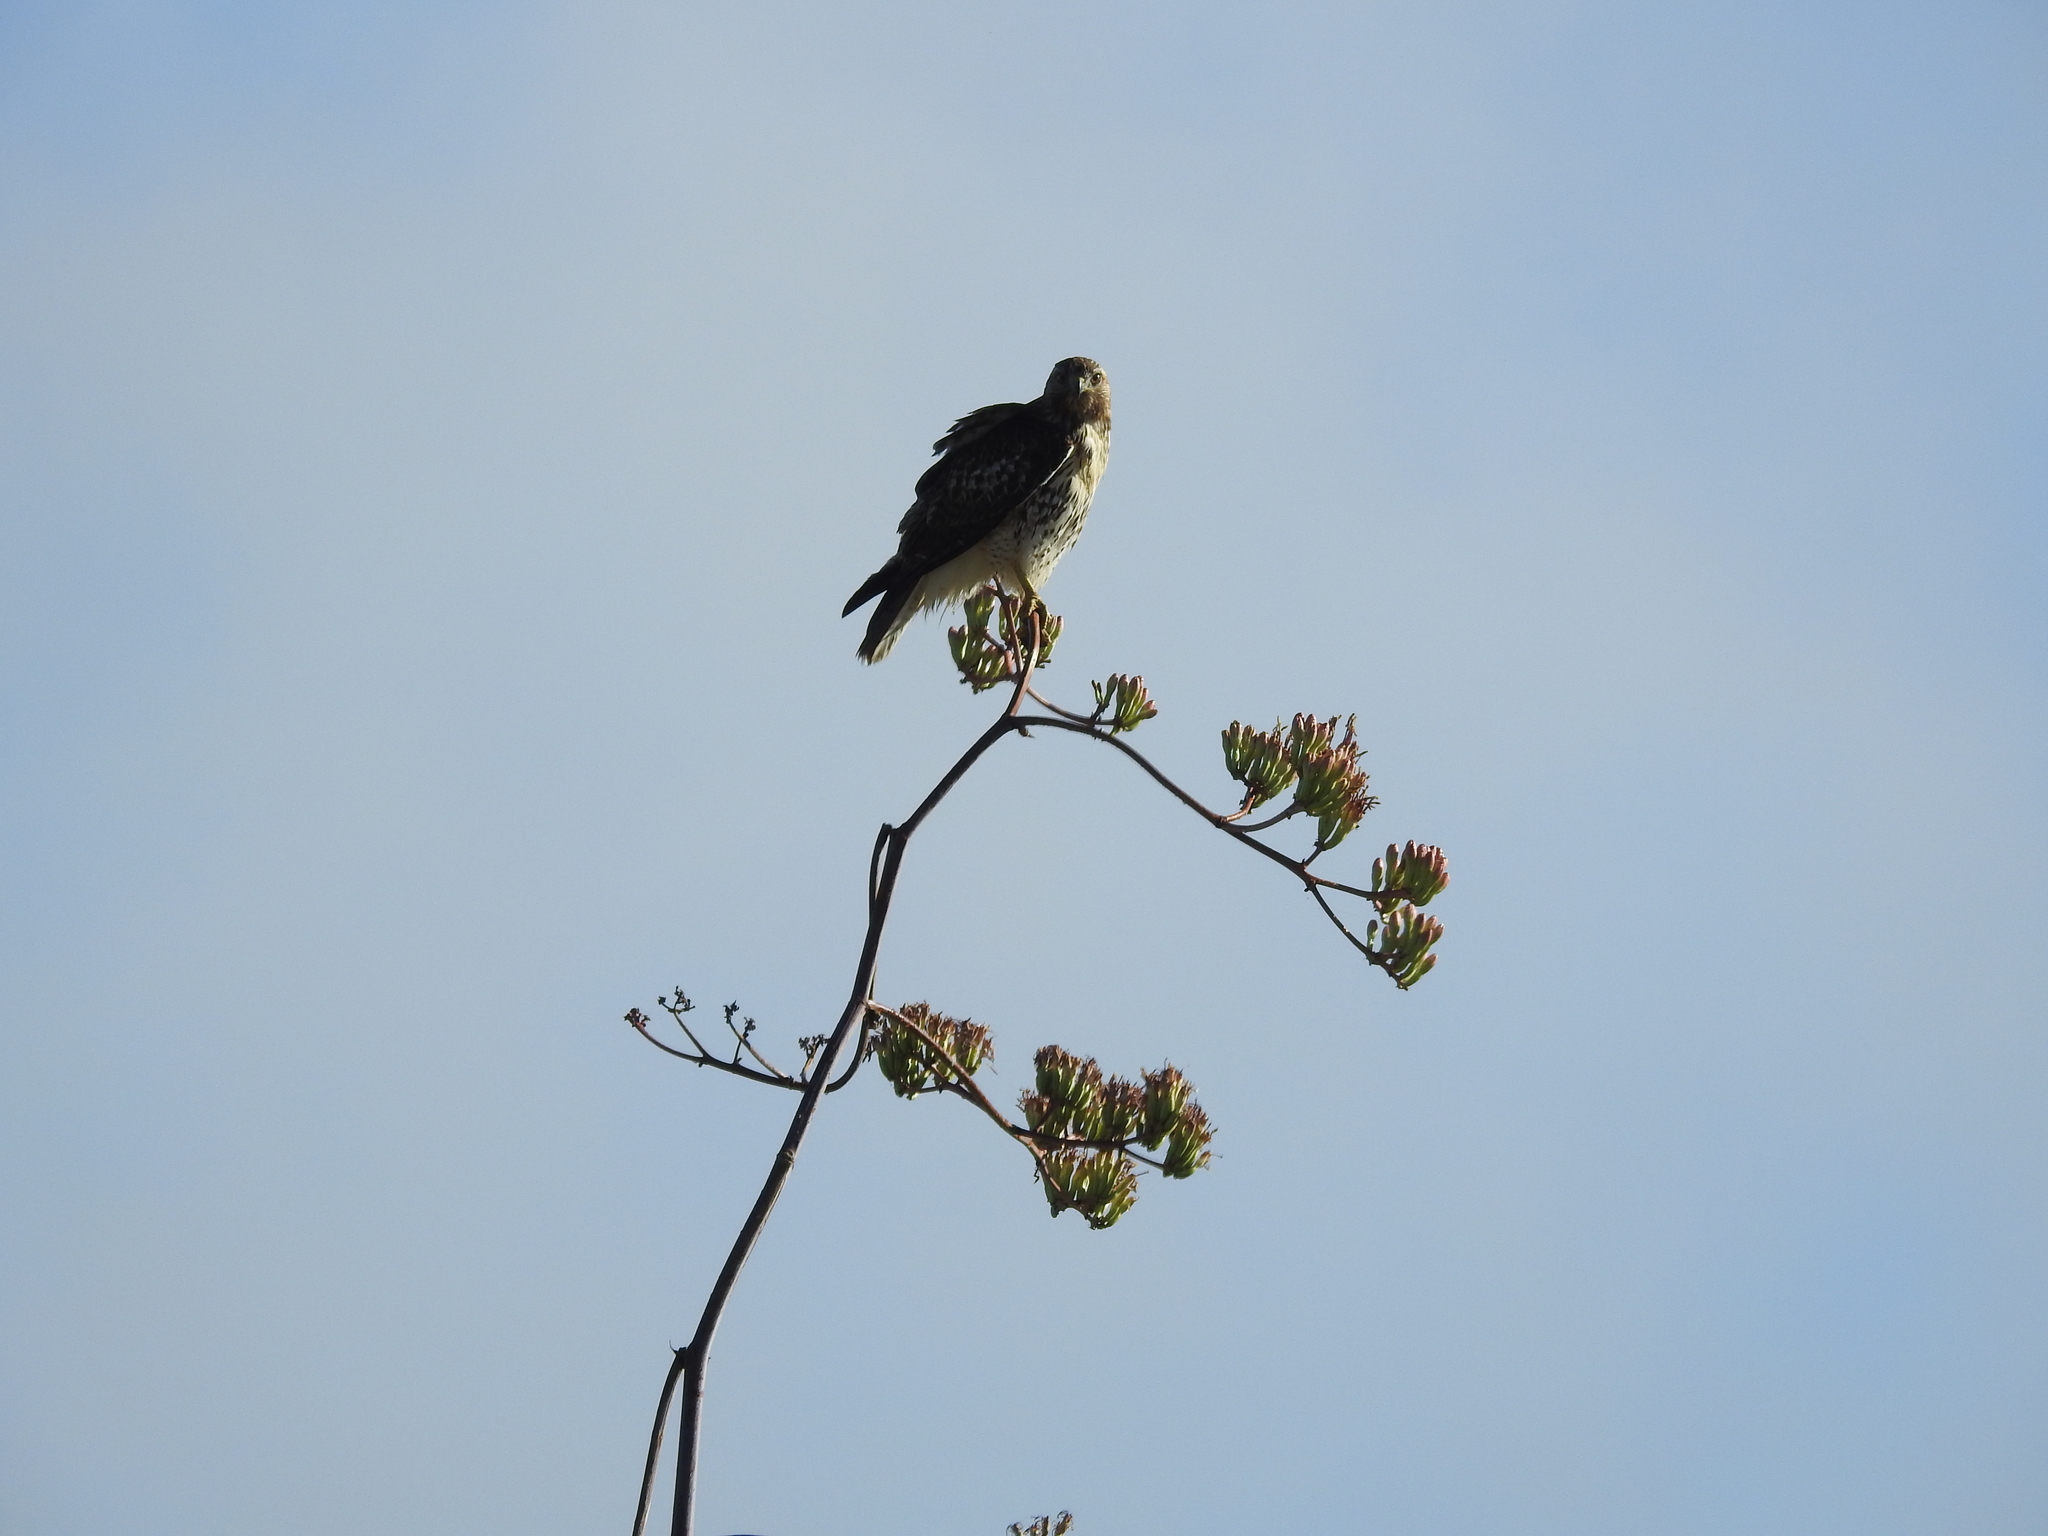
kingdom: Animalia
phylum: Chordata
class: Aves
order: Accipitriformes
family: Accipitridae
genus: Buteo
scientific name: Buteo jamaicensis
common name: Red-tailed hawk
